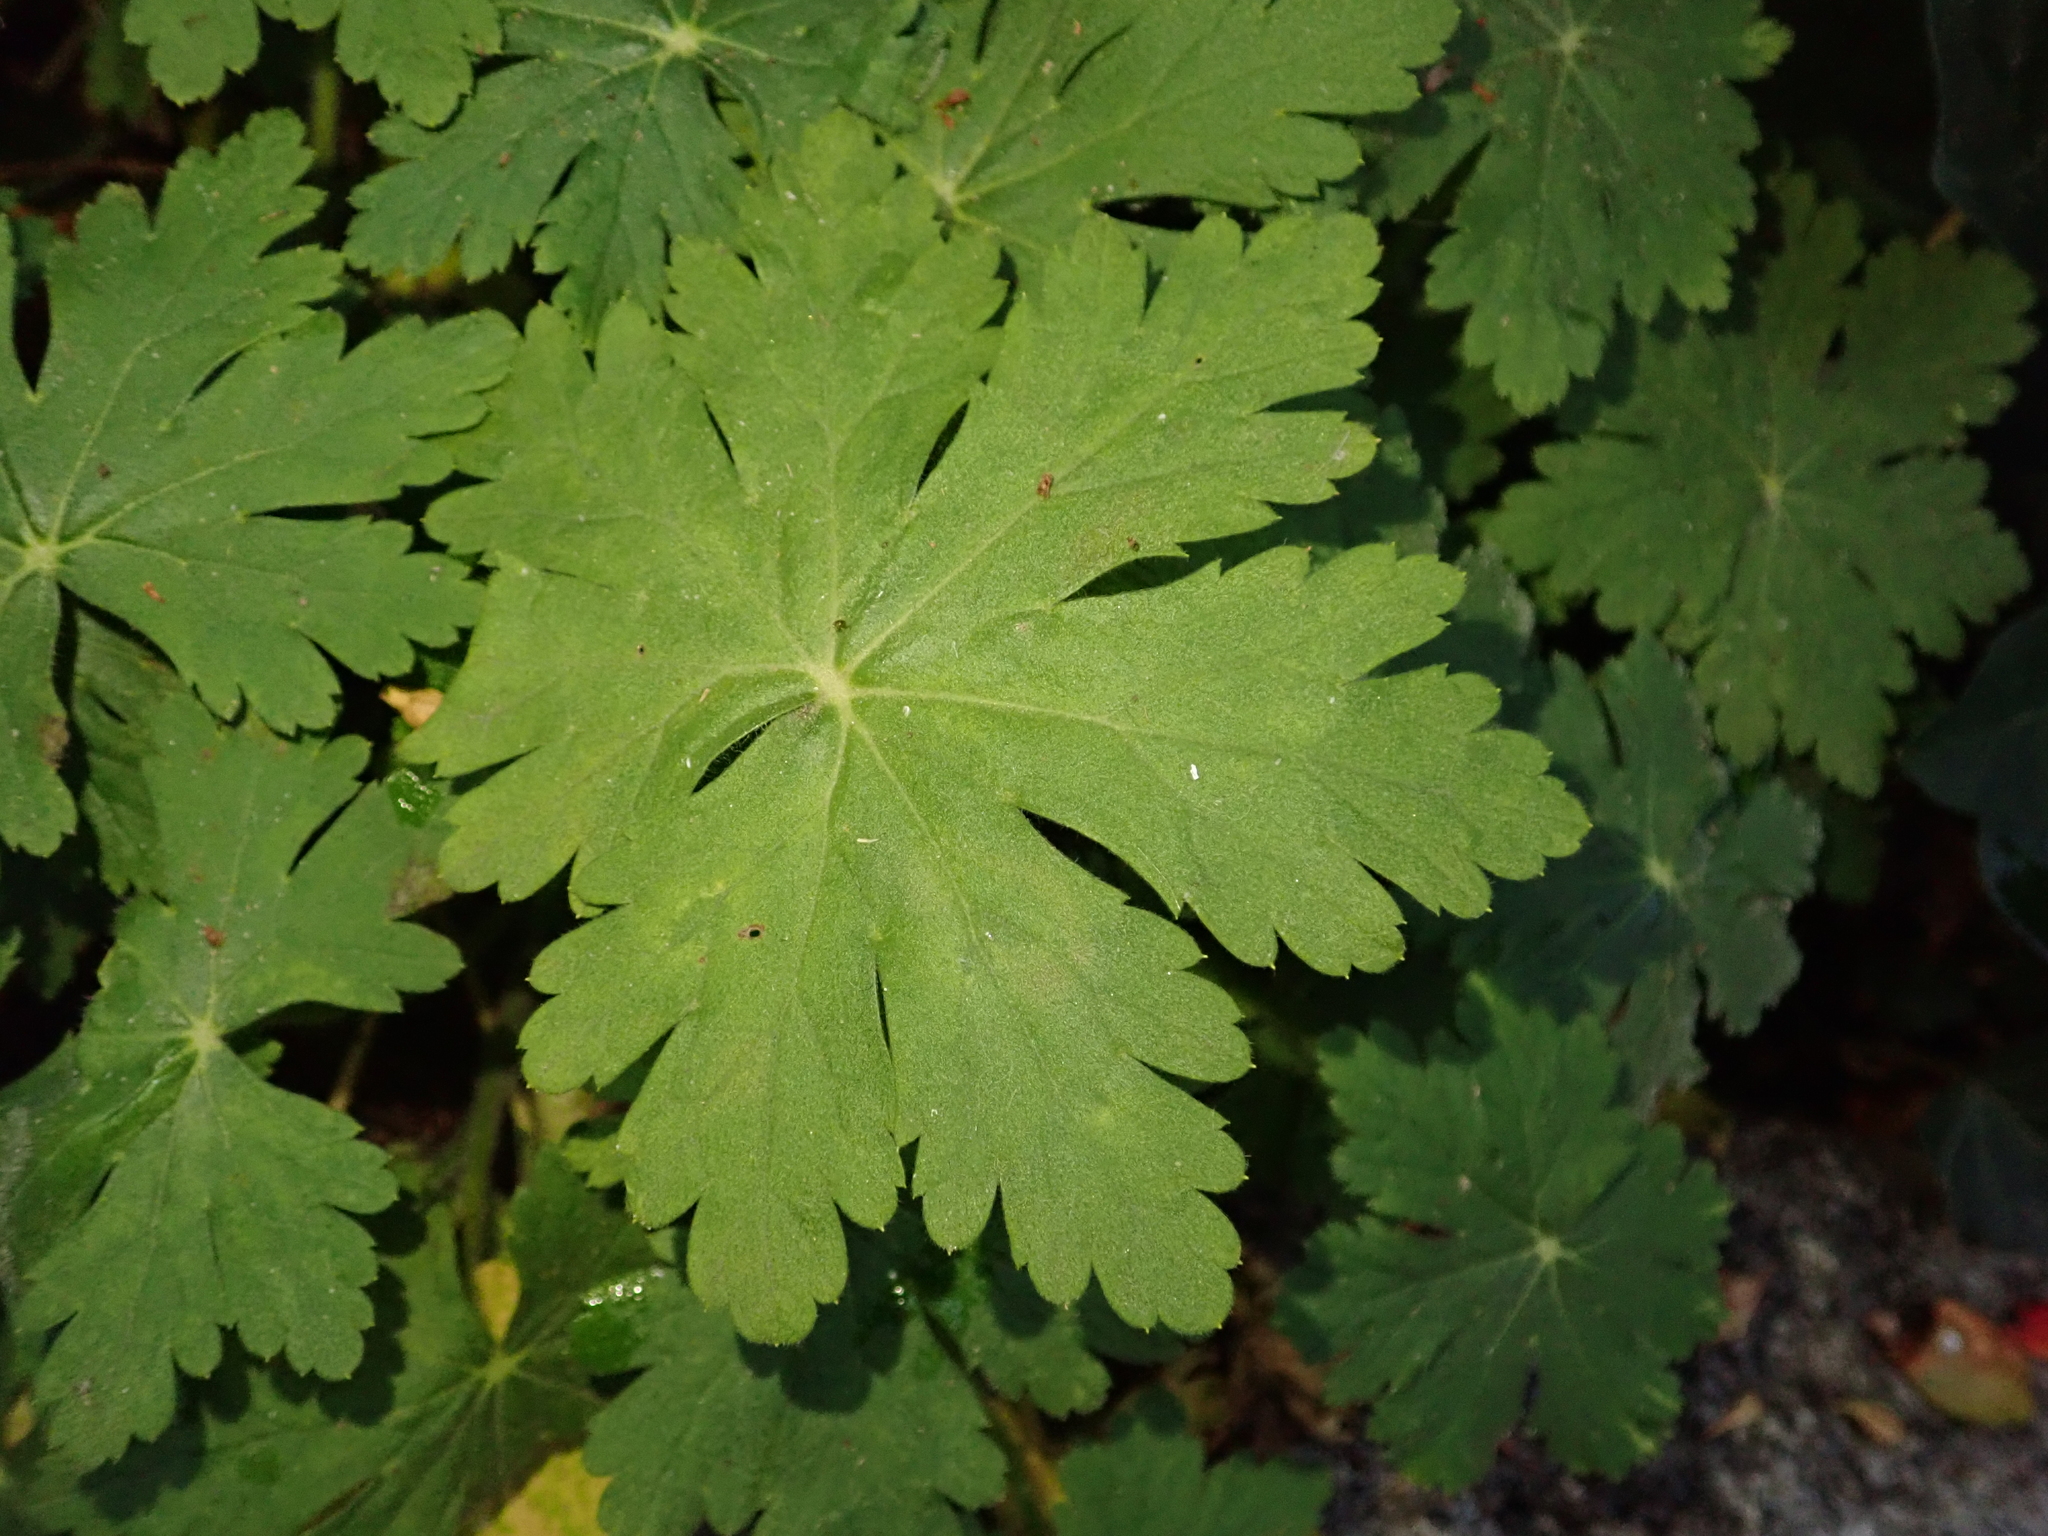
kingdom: Plantae
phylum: Tracheophyta
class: Magnoliopsida
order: Geraniales
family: Geraniaceae
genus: Geranium
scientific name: Geranium macrorrhizum
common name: Rock crane's-bill
